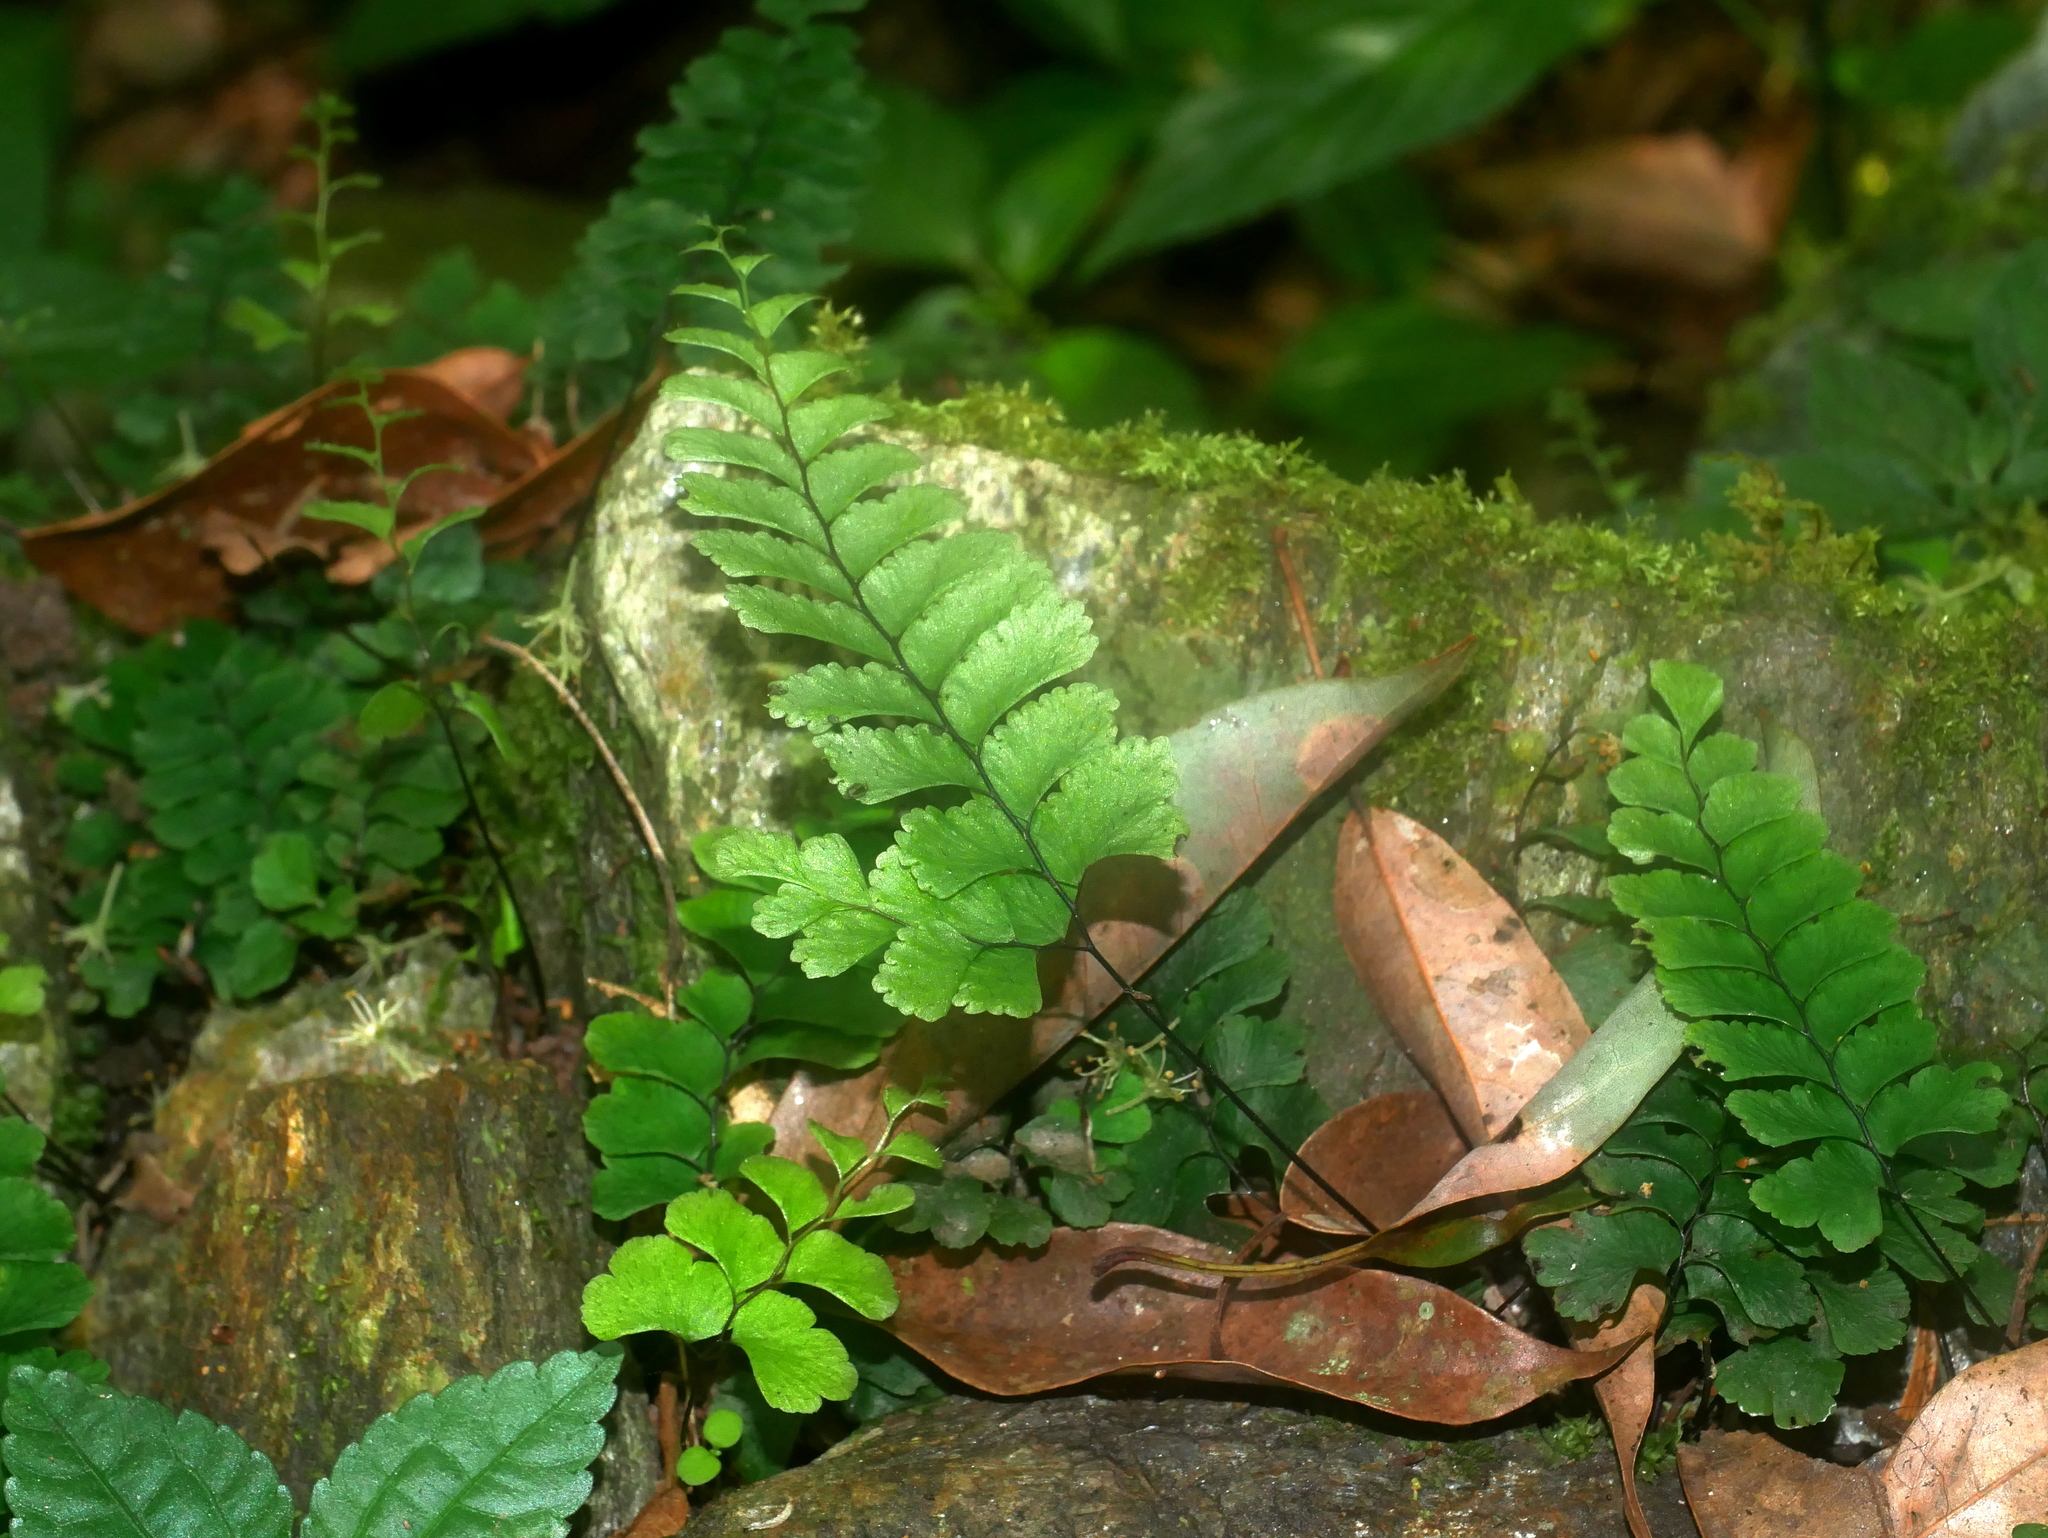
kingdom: Plantae
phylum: Tracheophyta
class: Polypodiopsida
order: Polypodiales
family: Pteridaceae
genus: Adiantum
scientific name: Adiantum diaphanum
